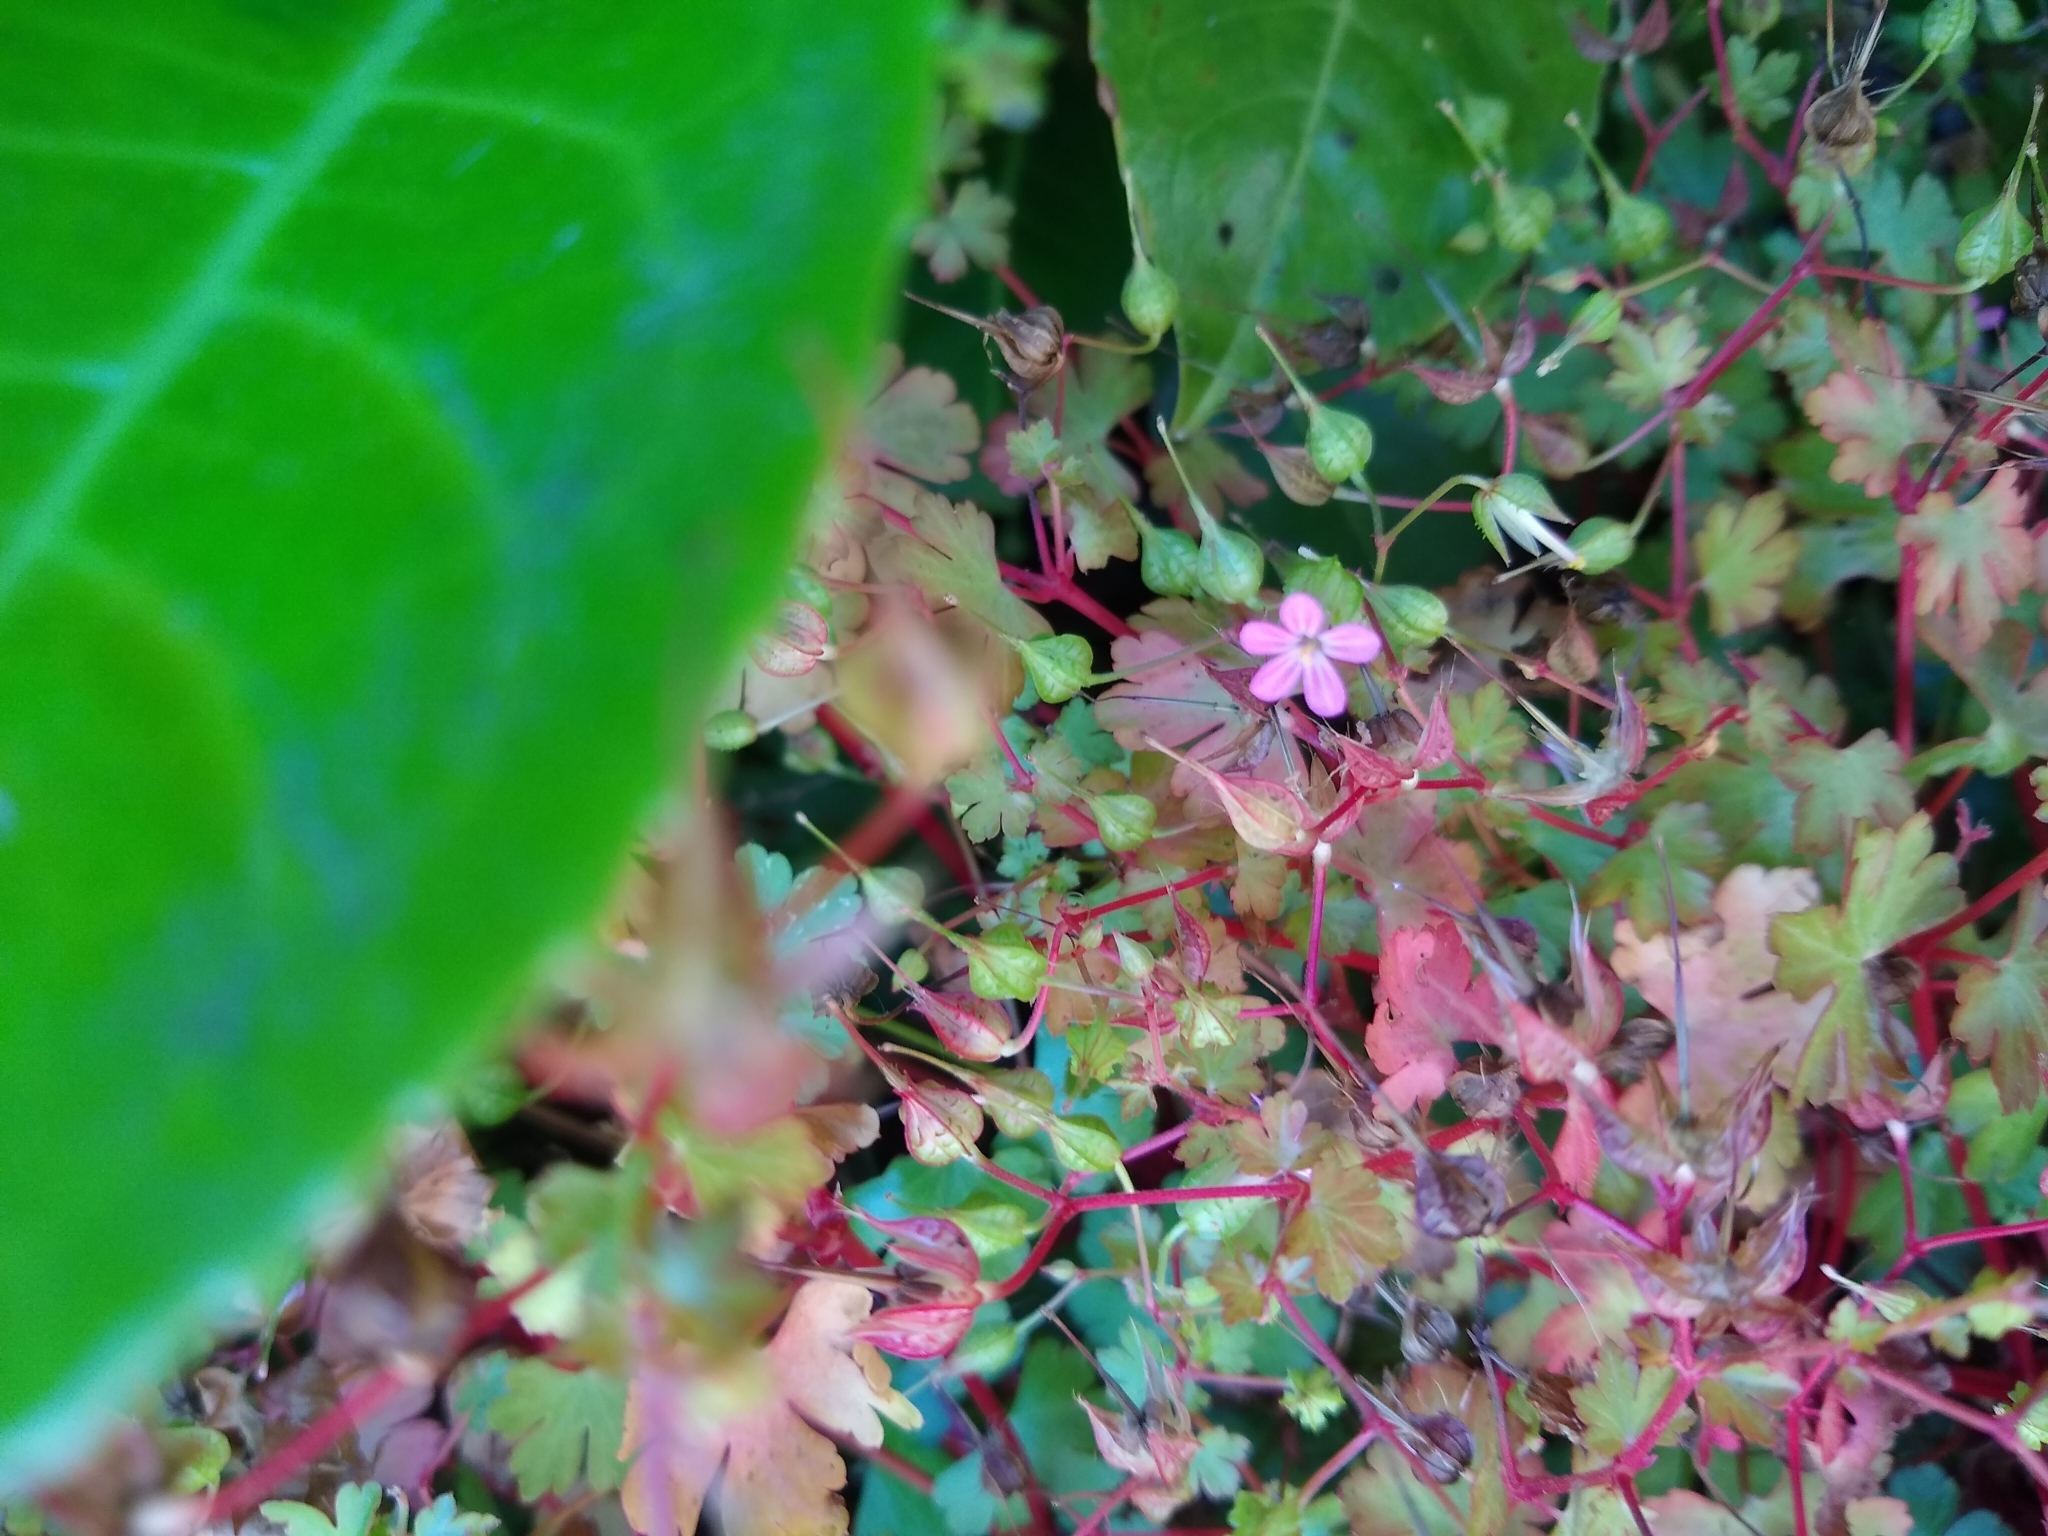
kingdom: Plantae
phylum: Tracheophyta
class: Magnoliopsida
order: Geraniales
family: Geraniaceae
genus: Geranium
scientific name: Geranium lucidum
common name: Shining crane's-bill
